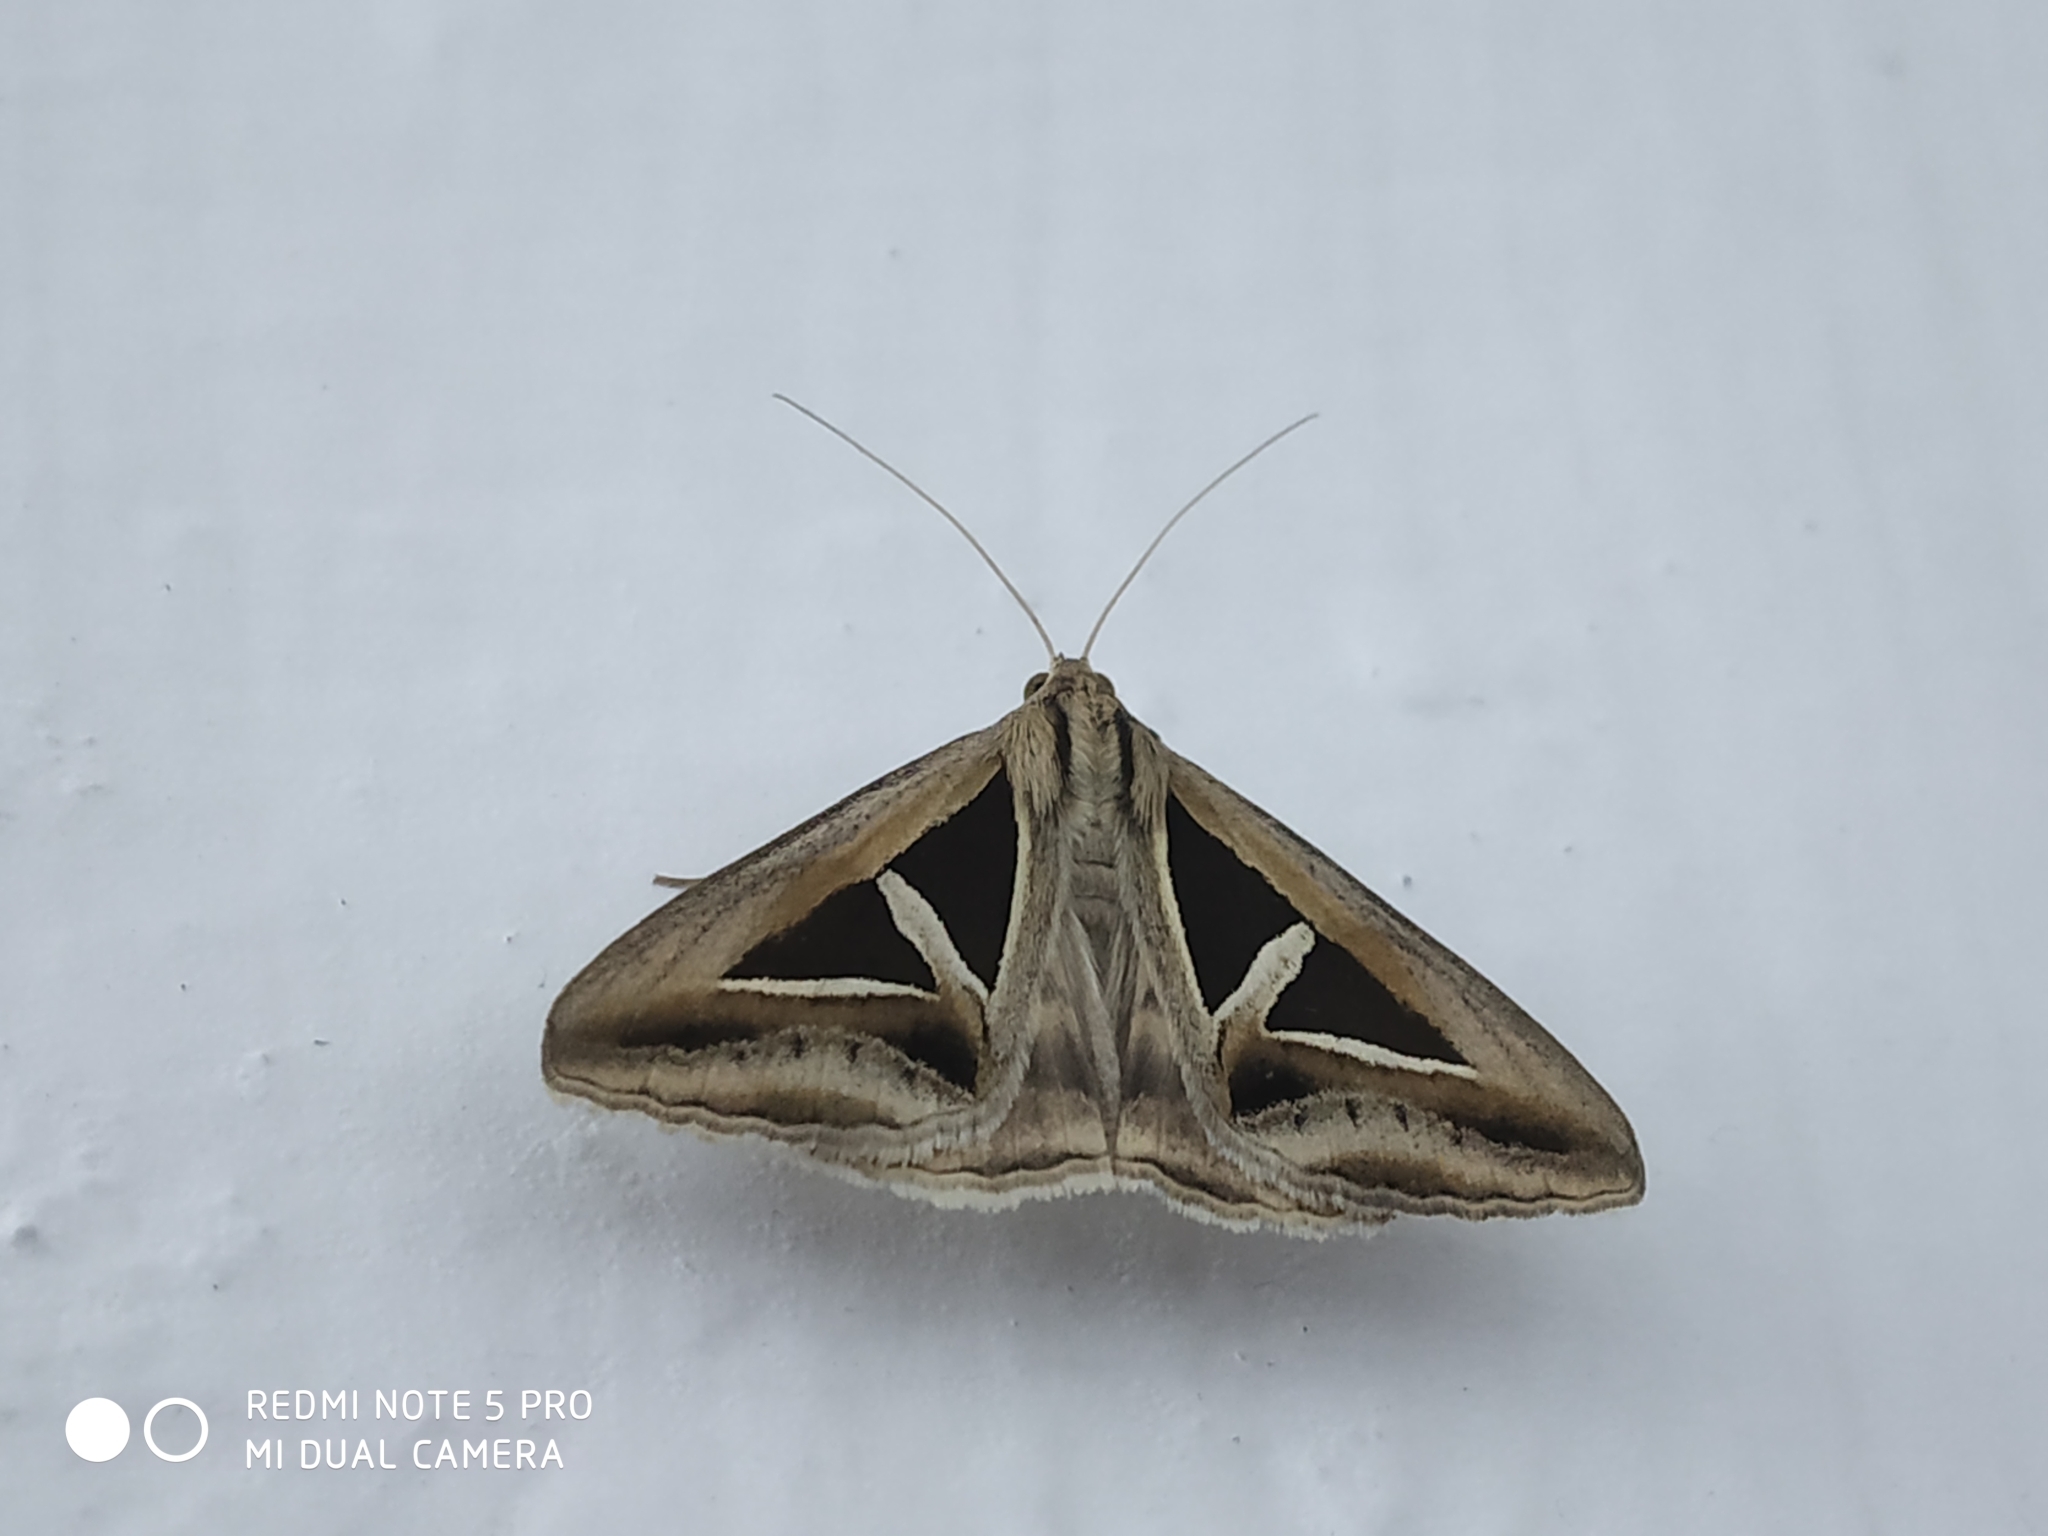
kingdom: Animalia
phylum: Arthropoda
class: Insecta
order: Lepidoptera
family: Erebidae
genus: Trigonodes
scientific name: Trigonodes hyppasia
